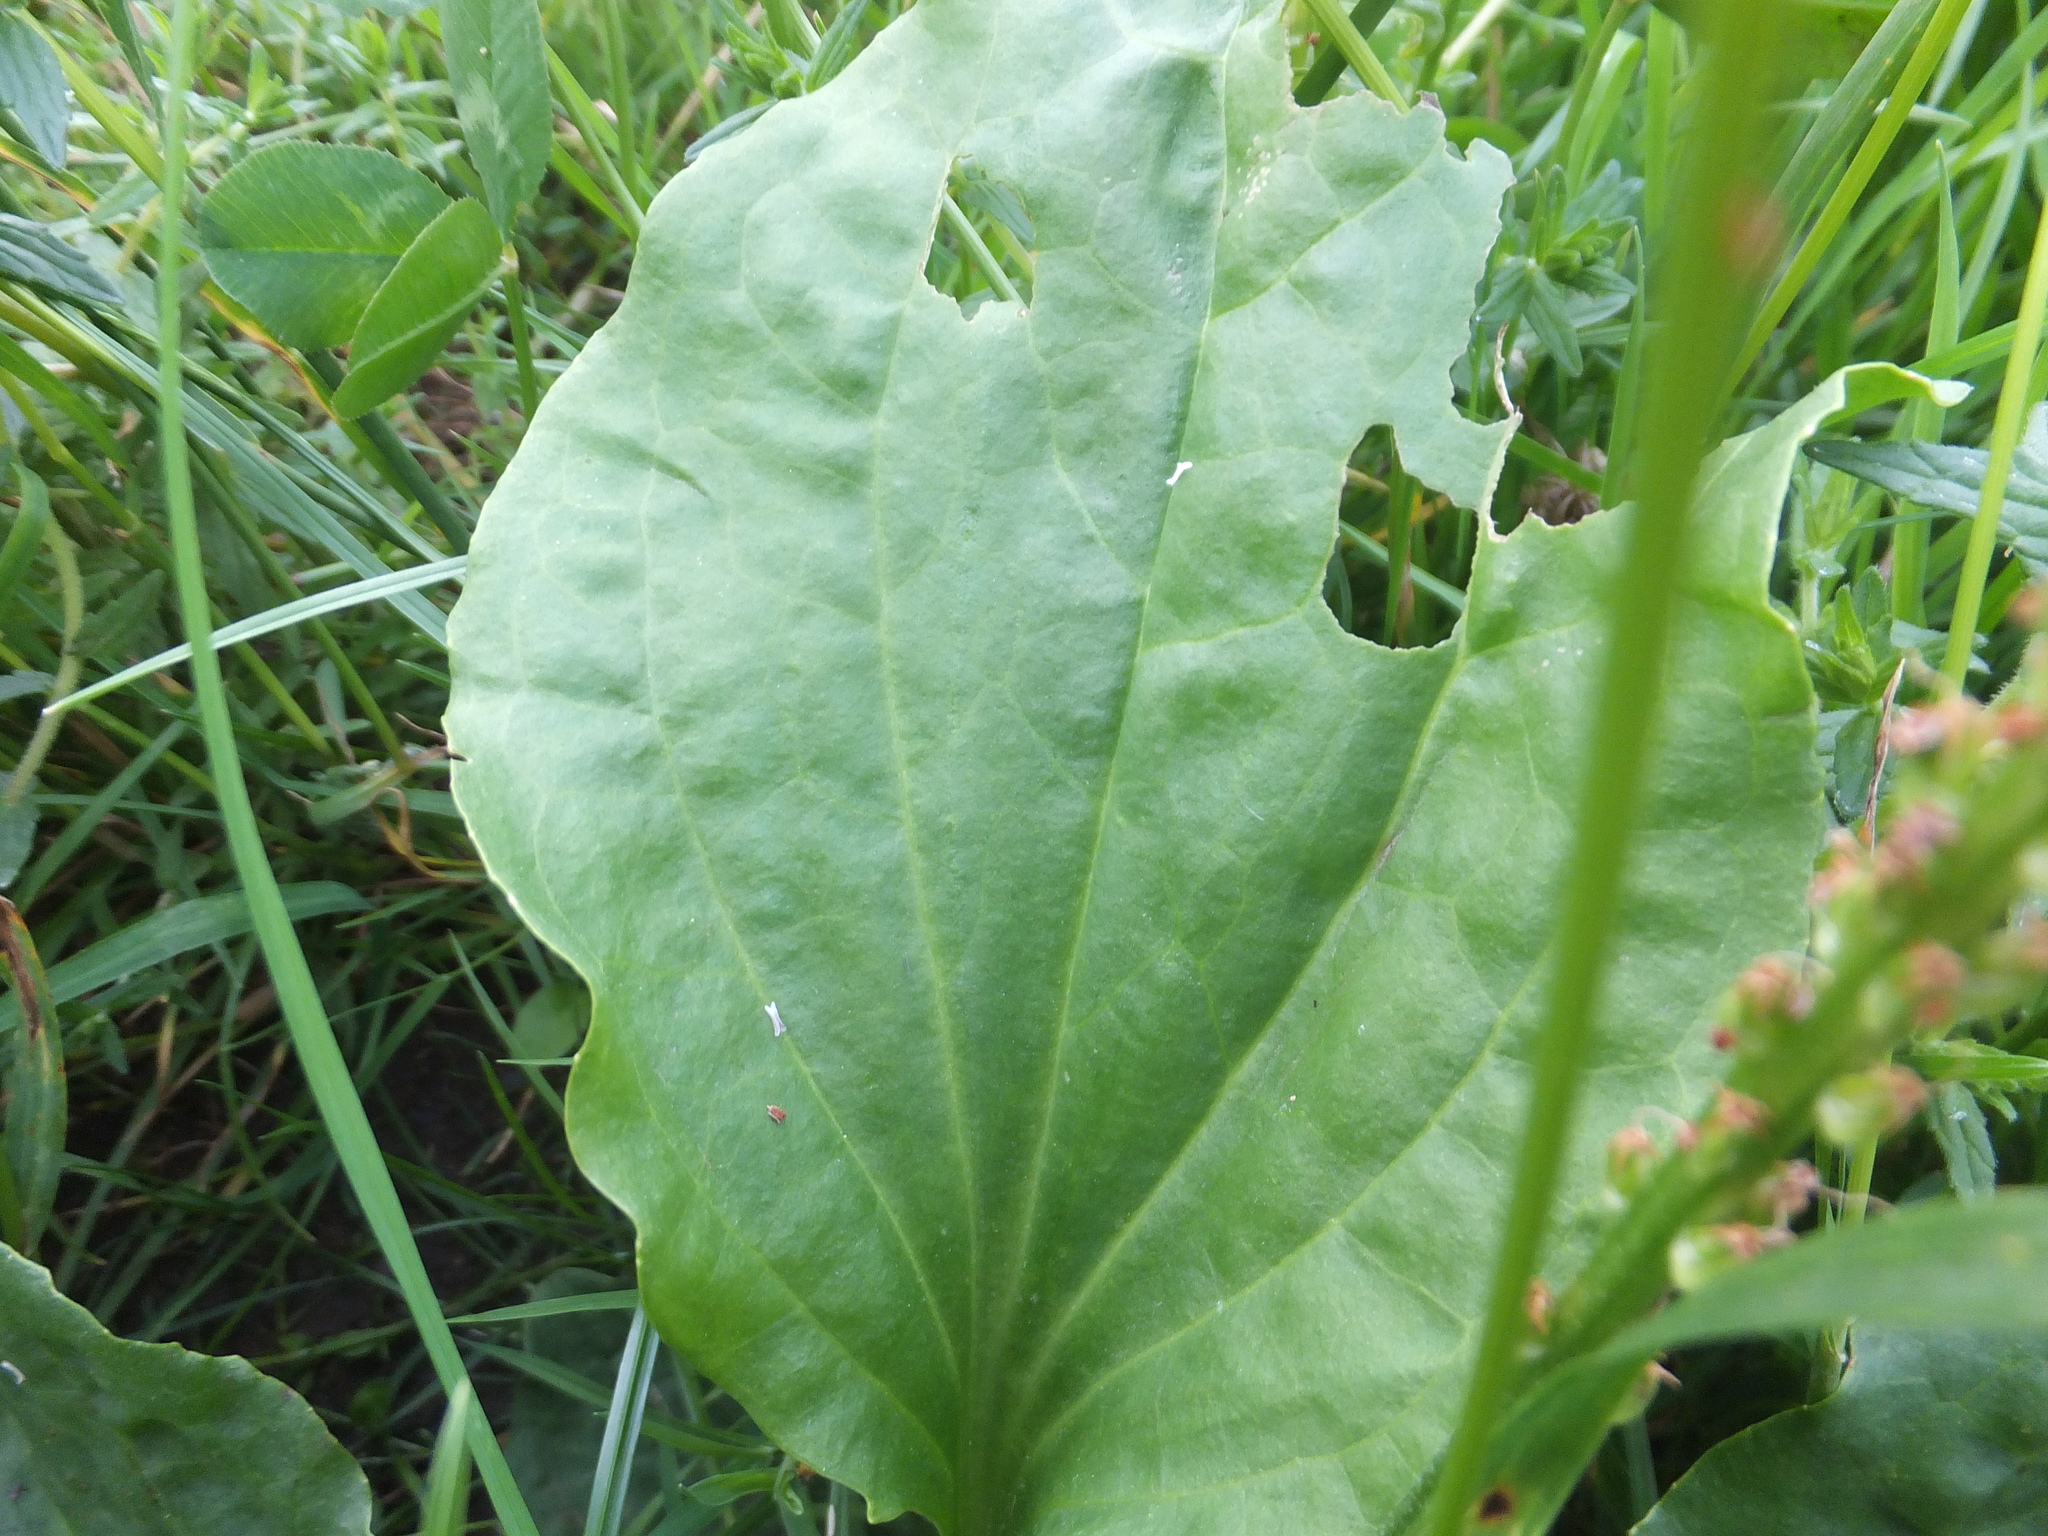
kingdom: Plantae
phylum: Tracheophyta
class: Magnoliopsida
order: Lamiales
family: Plantaginaceae
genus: Plantago
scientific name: Plantago major
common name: Common plantain
